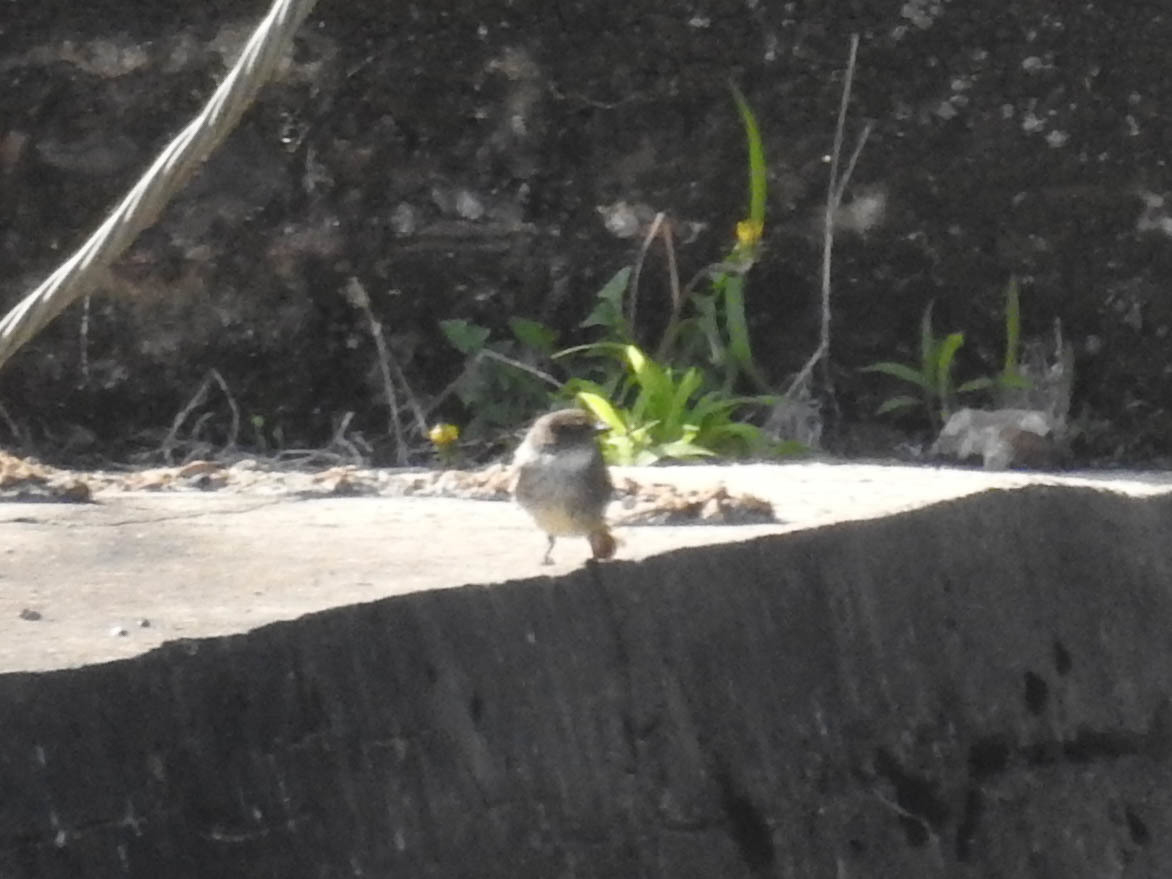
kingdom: Animalia
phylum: Chordata
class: Aves
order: Passeriformes
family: Tyrannidae
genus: Sayornis
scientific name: Sayornis phoebe
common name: Eastern phoebe
